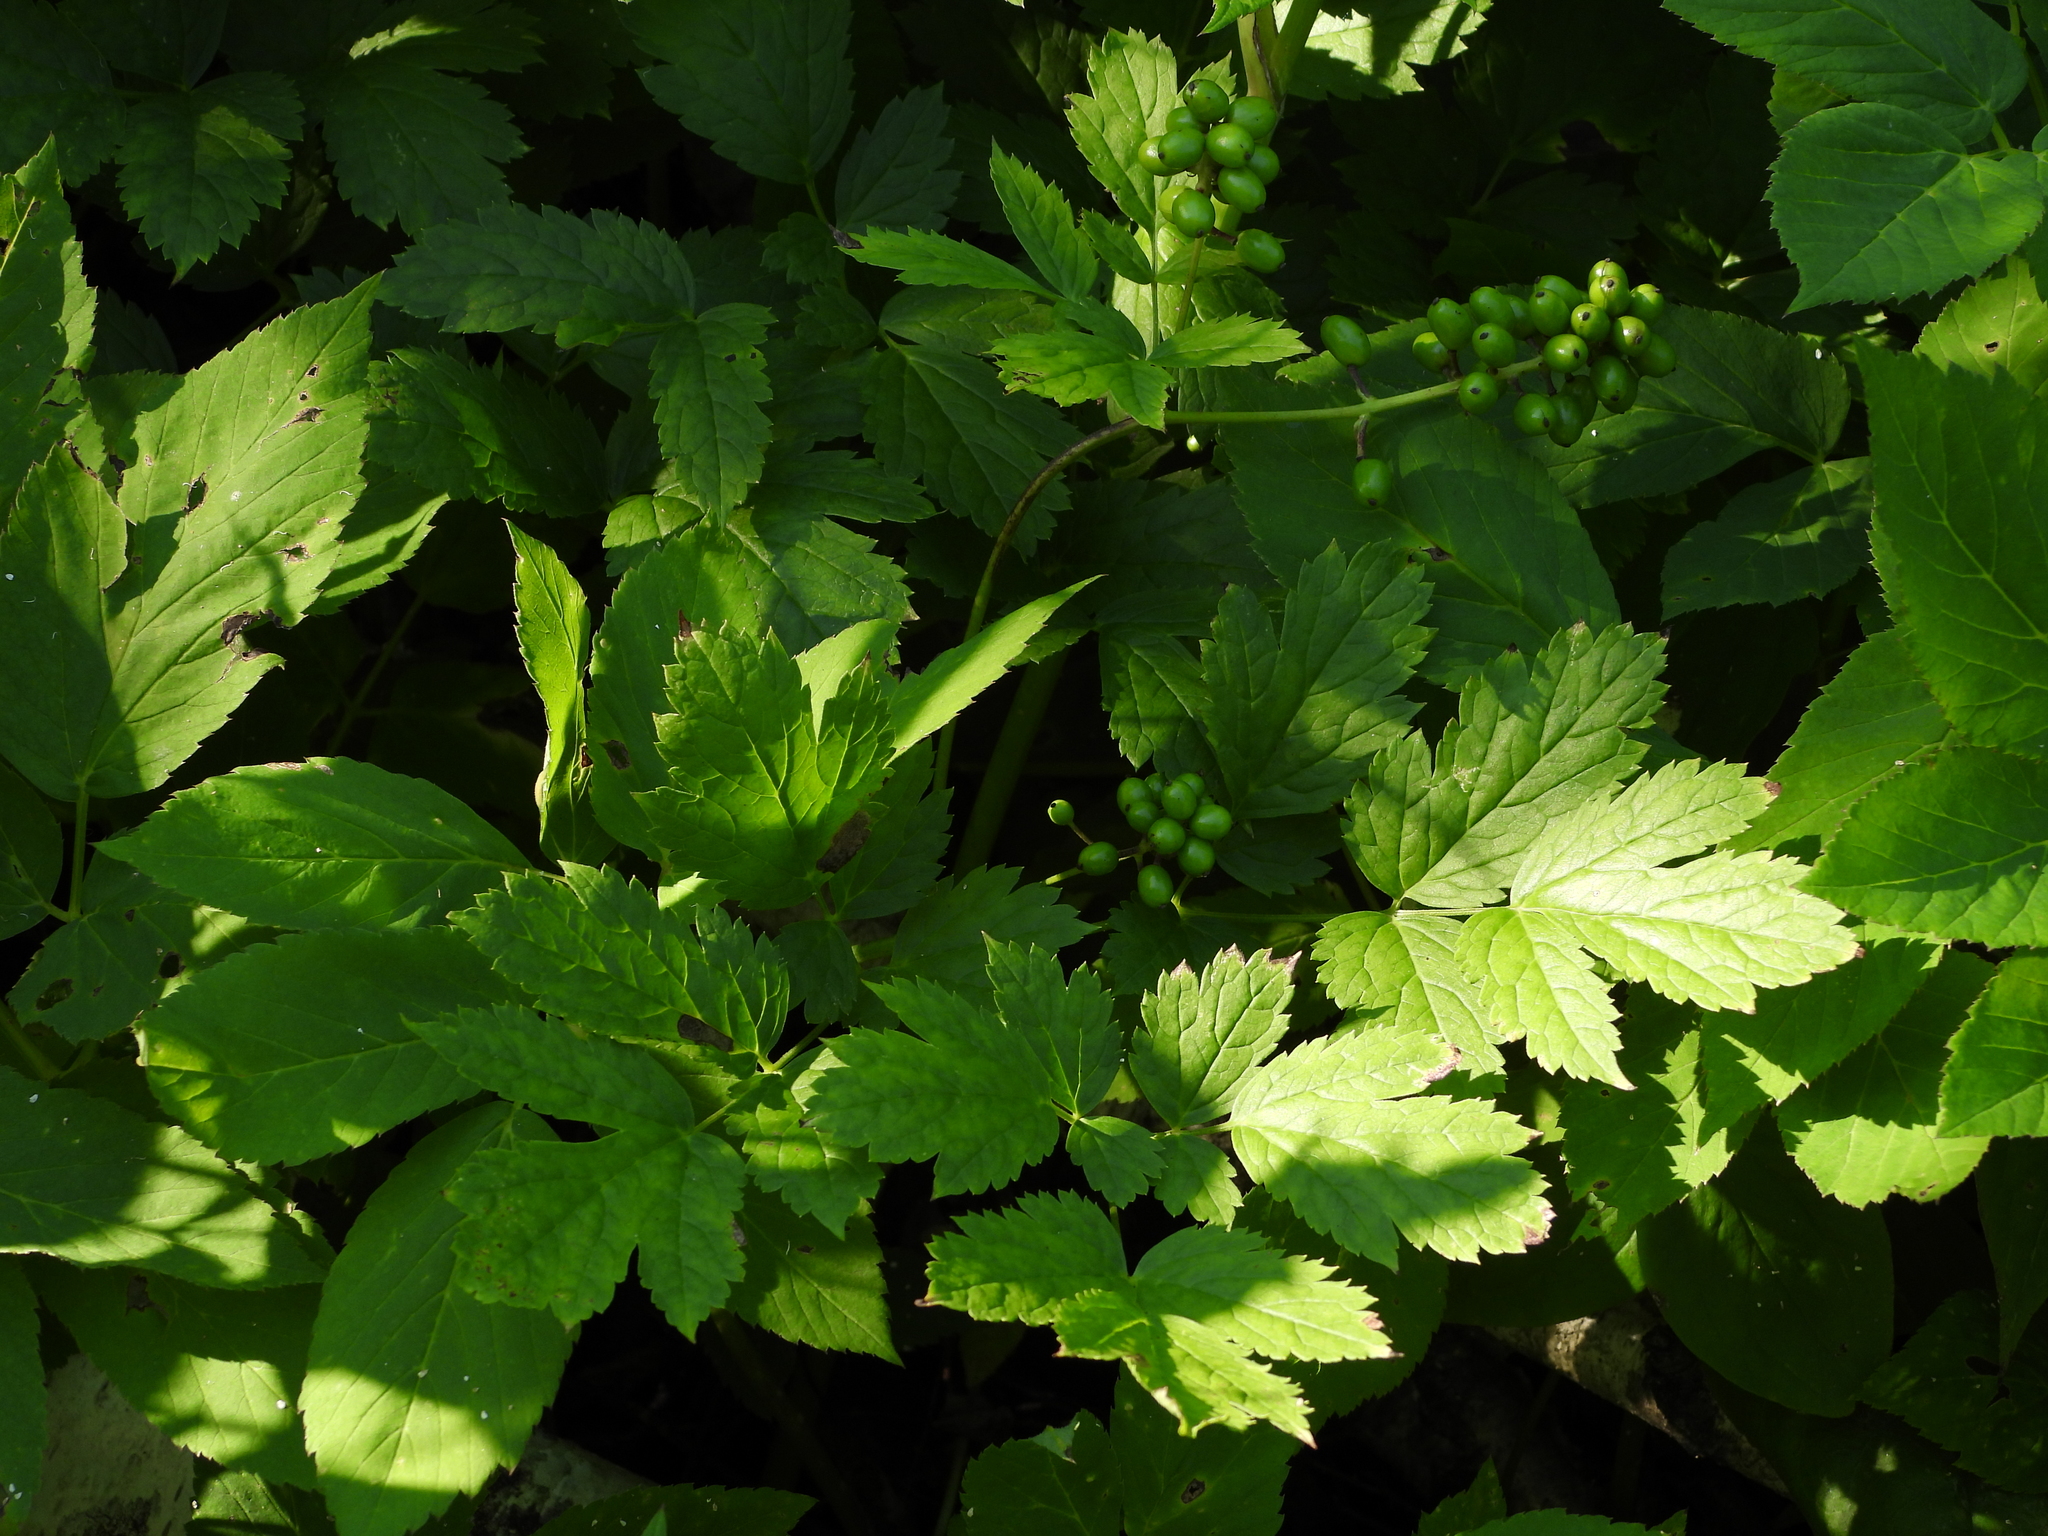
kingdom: Plantae
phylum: Tracheophyta
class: Magnoliopsida
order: Ranunculales
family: Ranunculaceae
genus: Actaea
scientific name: Actaea spicata
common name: Baneberry
